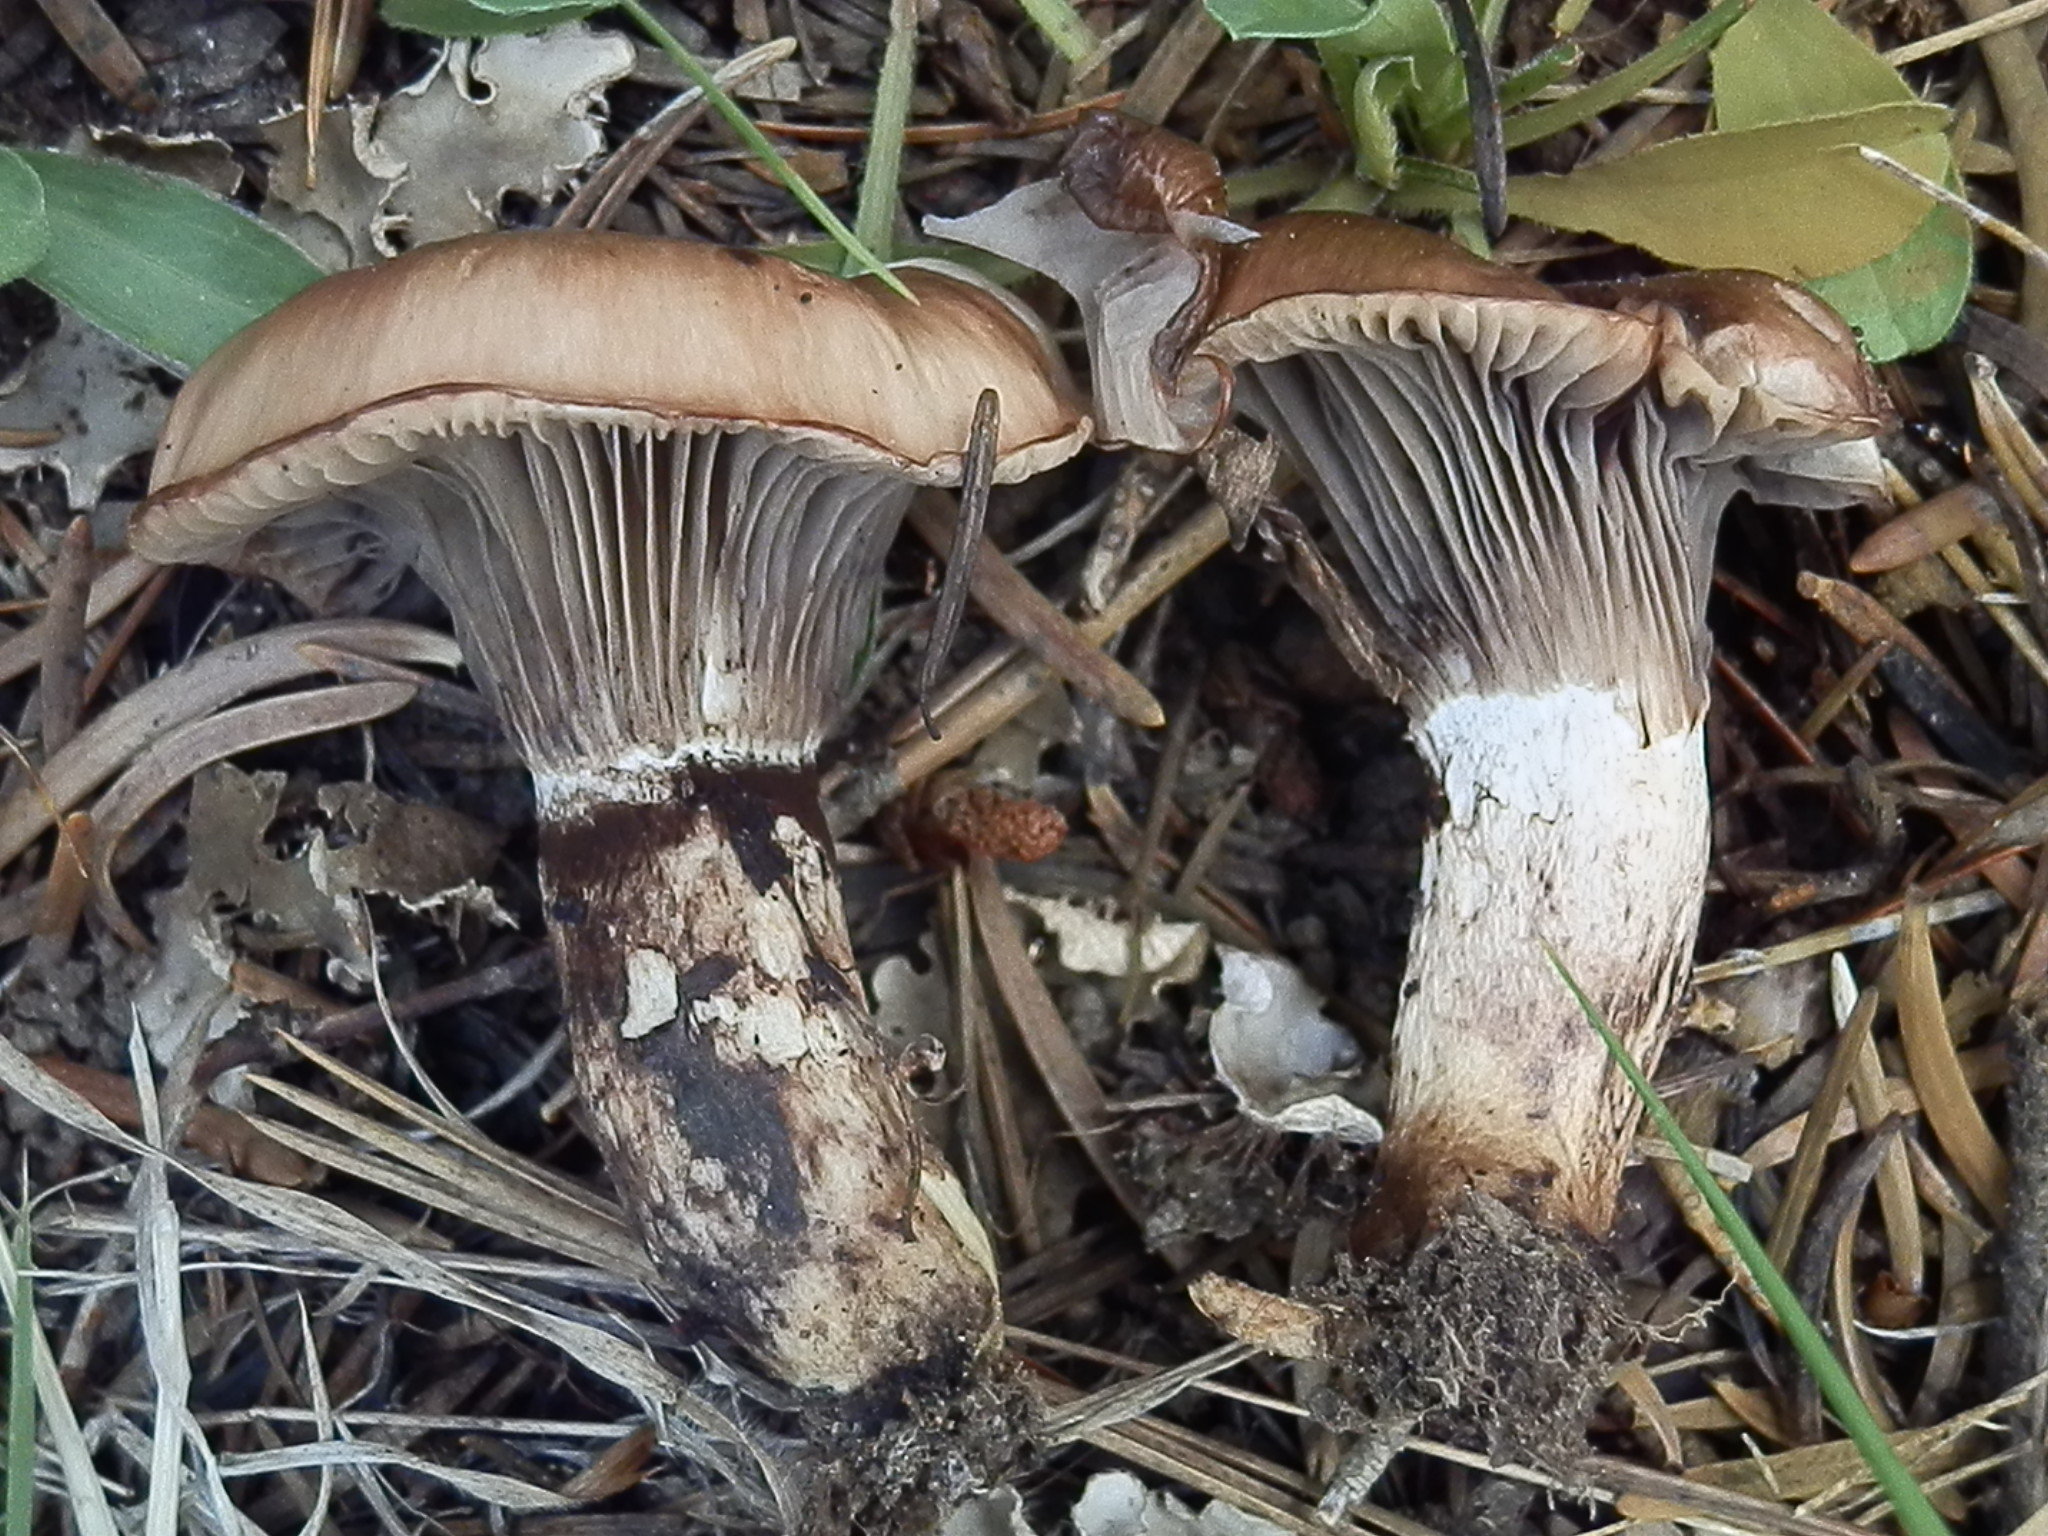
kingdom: Fungi
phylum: Basidiomycota
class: Agaricomycetes
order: Boletales
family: Gomphidiaceae
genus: Gomphidius
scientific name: Gomphidius smithii
